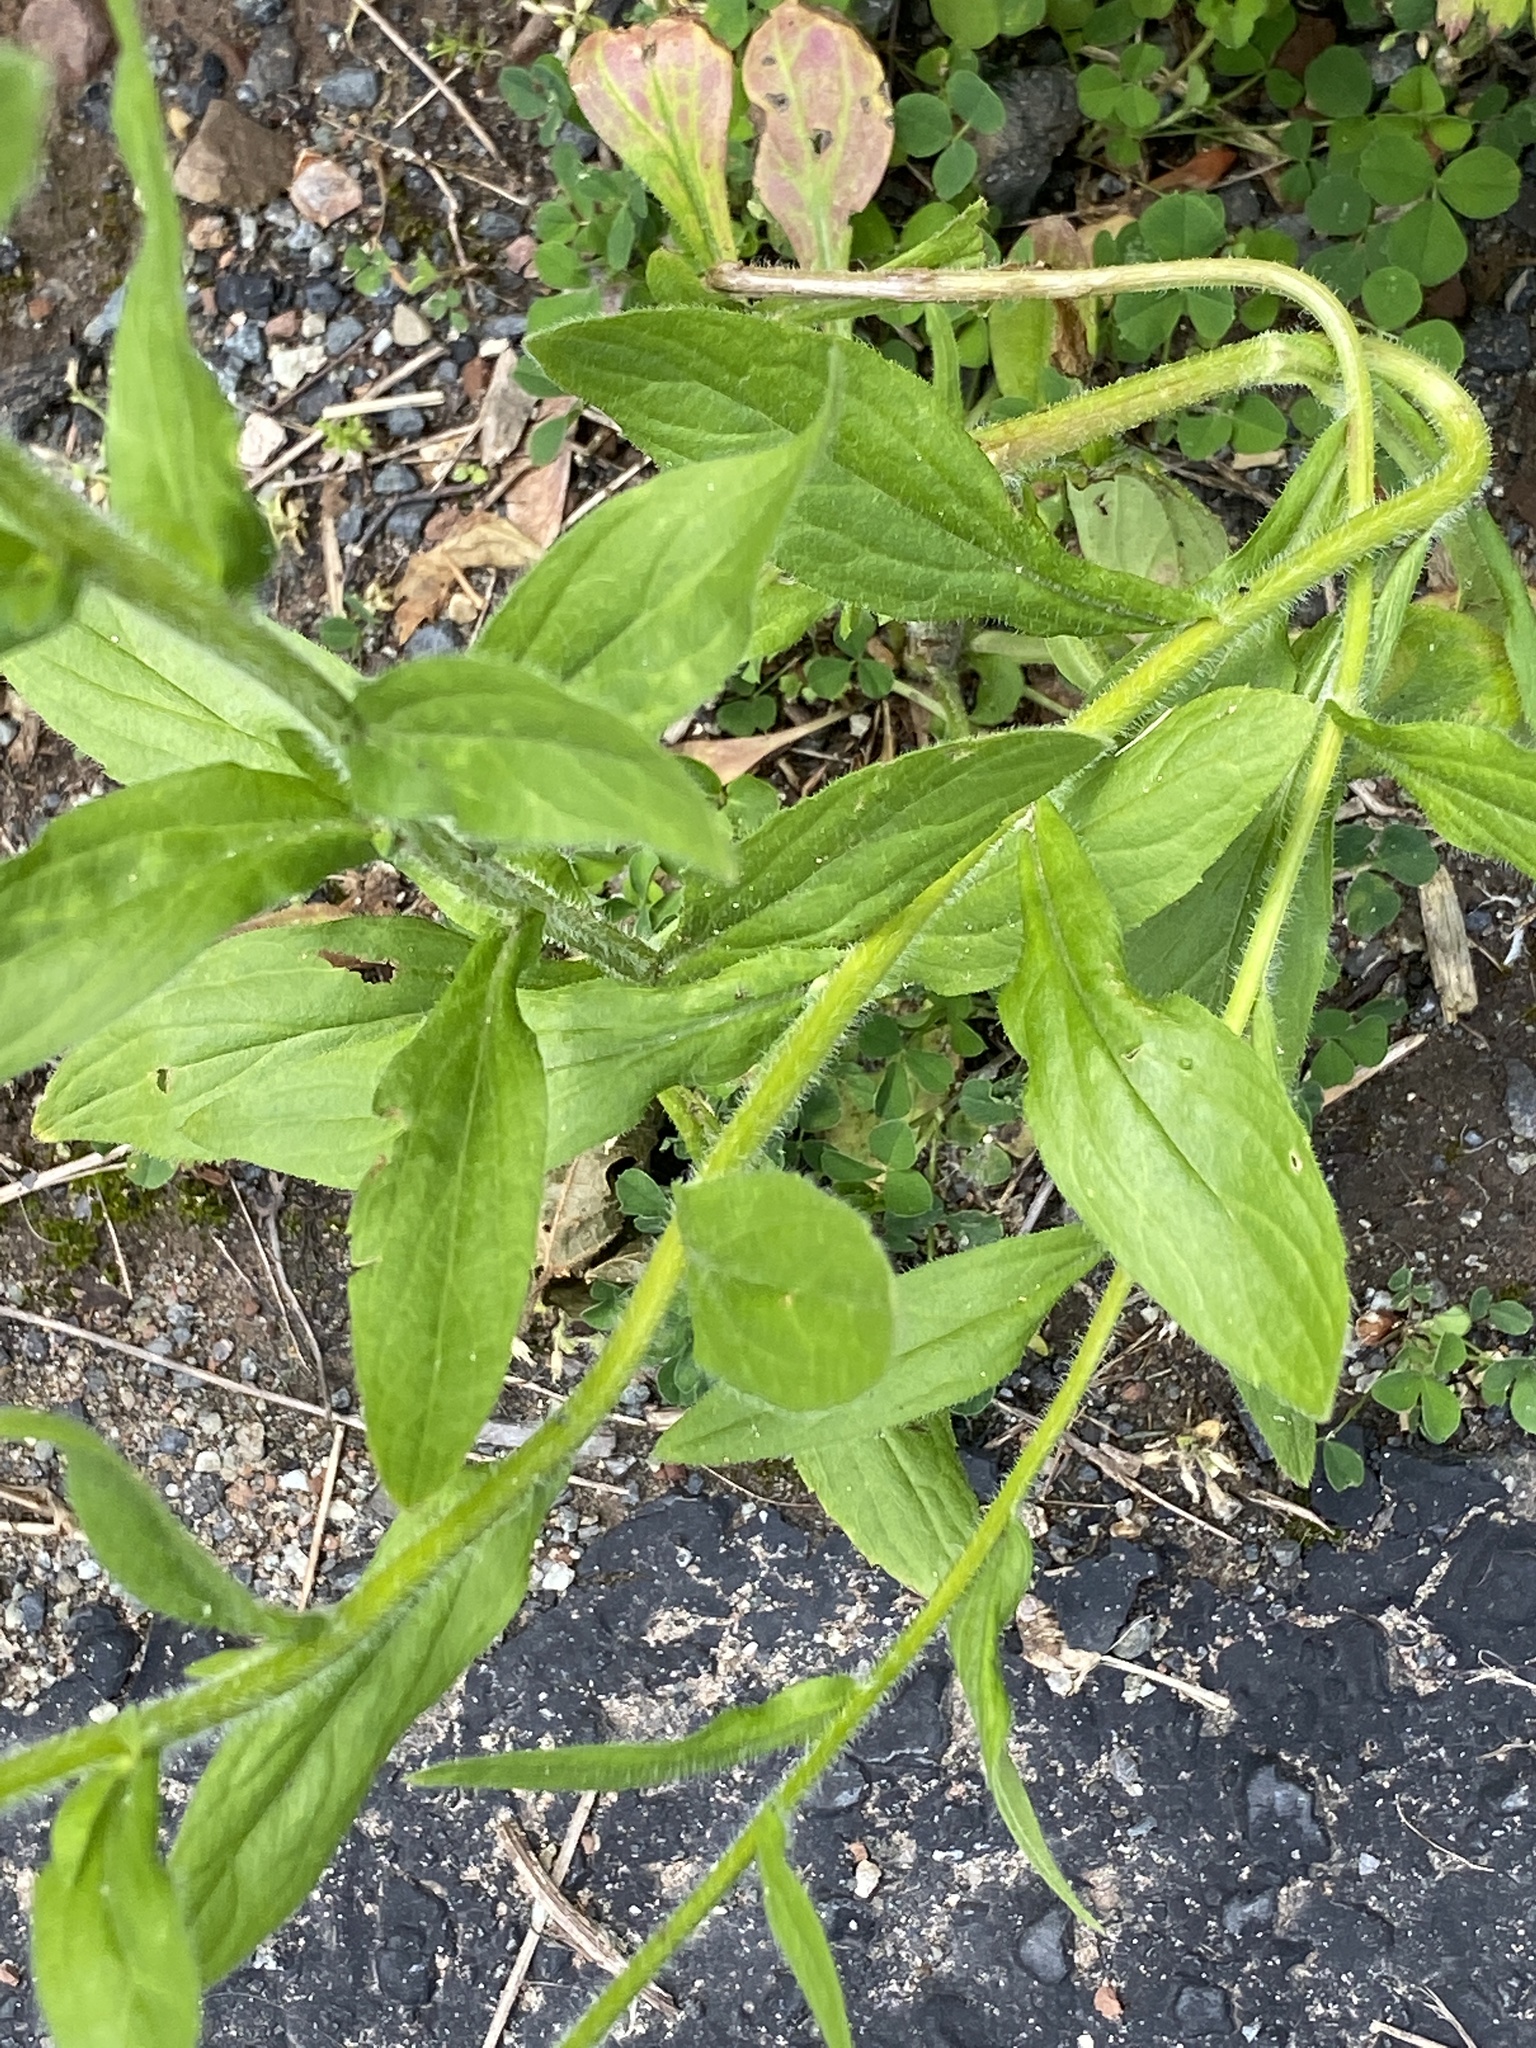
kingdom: Plantae
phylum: Tracheophyta
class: Magnoliopsida
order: Asterales
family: Asteraceae
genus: Erigeron
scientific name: Erigeron annuus
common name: Tall fleabane
